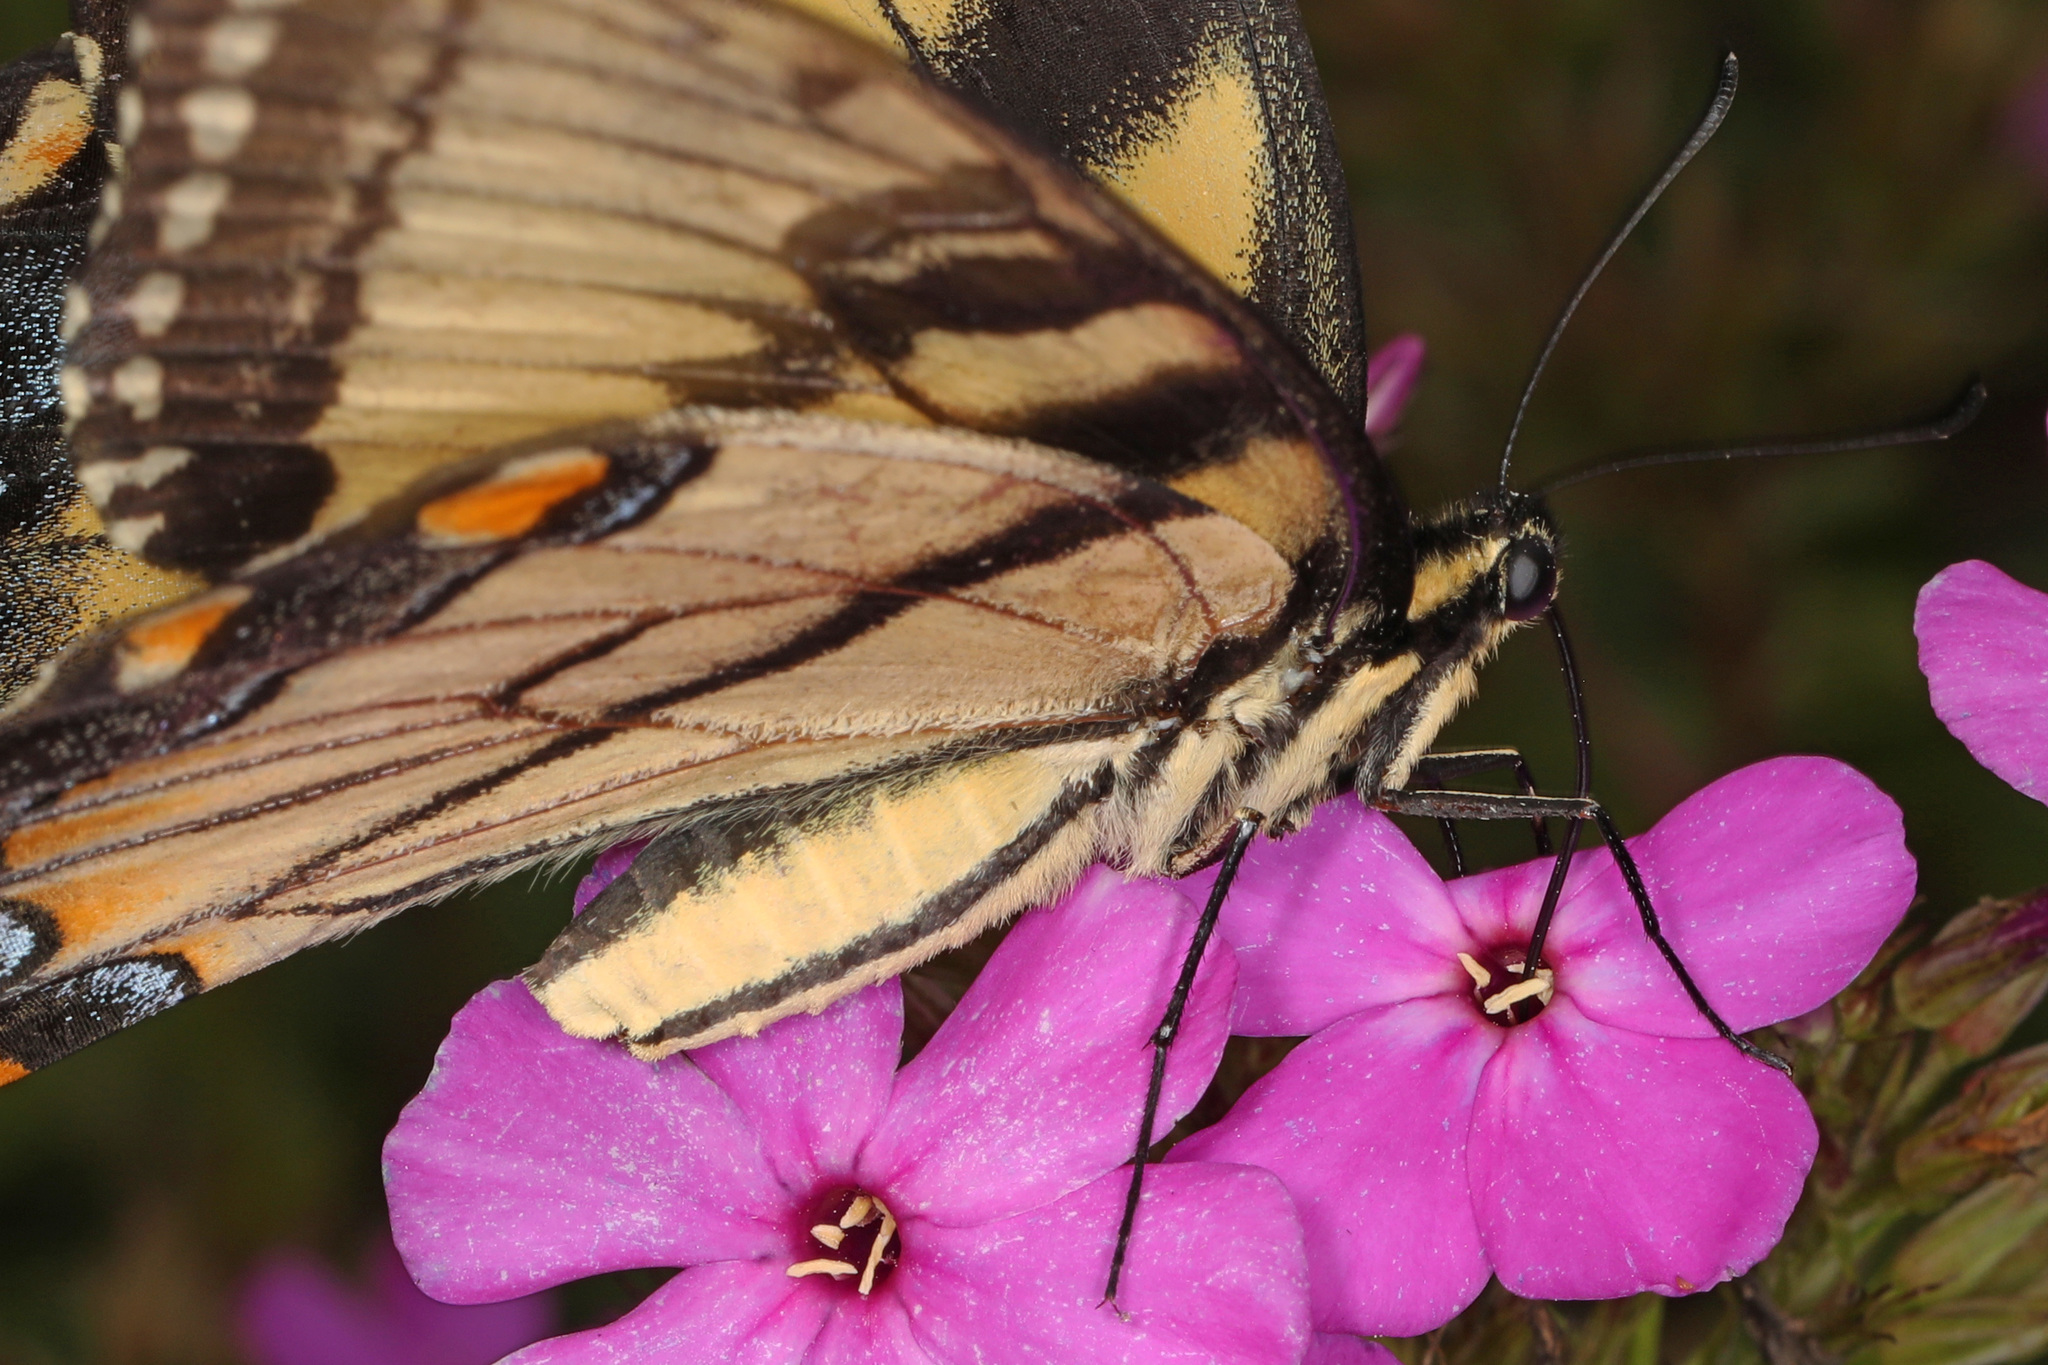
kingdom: Animalia
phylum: Arthropoda
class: Insecta
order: Lepidoptera
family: Papilionidae
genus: Papilio
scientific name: Papilio glaucus
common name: Tiger swallowtail
